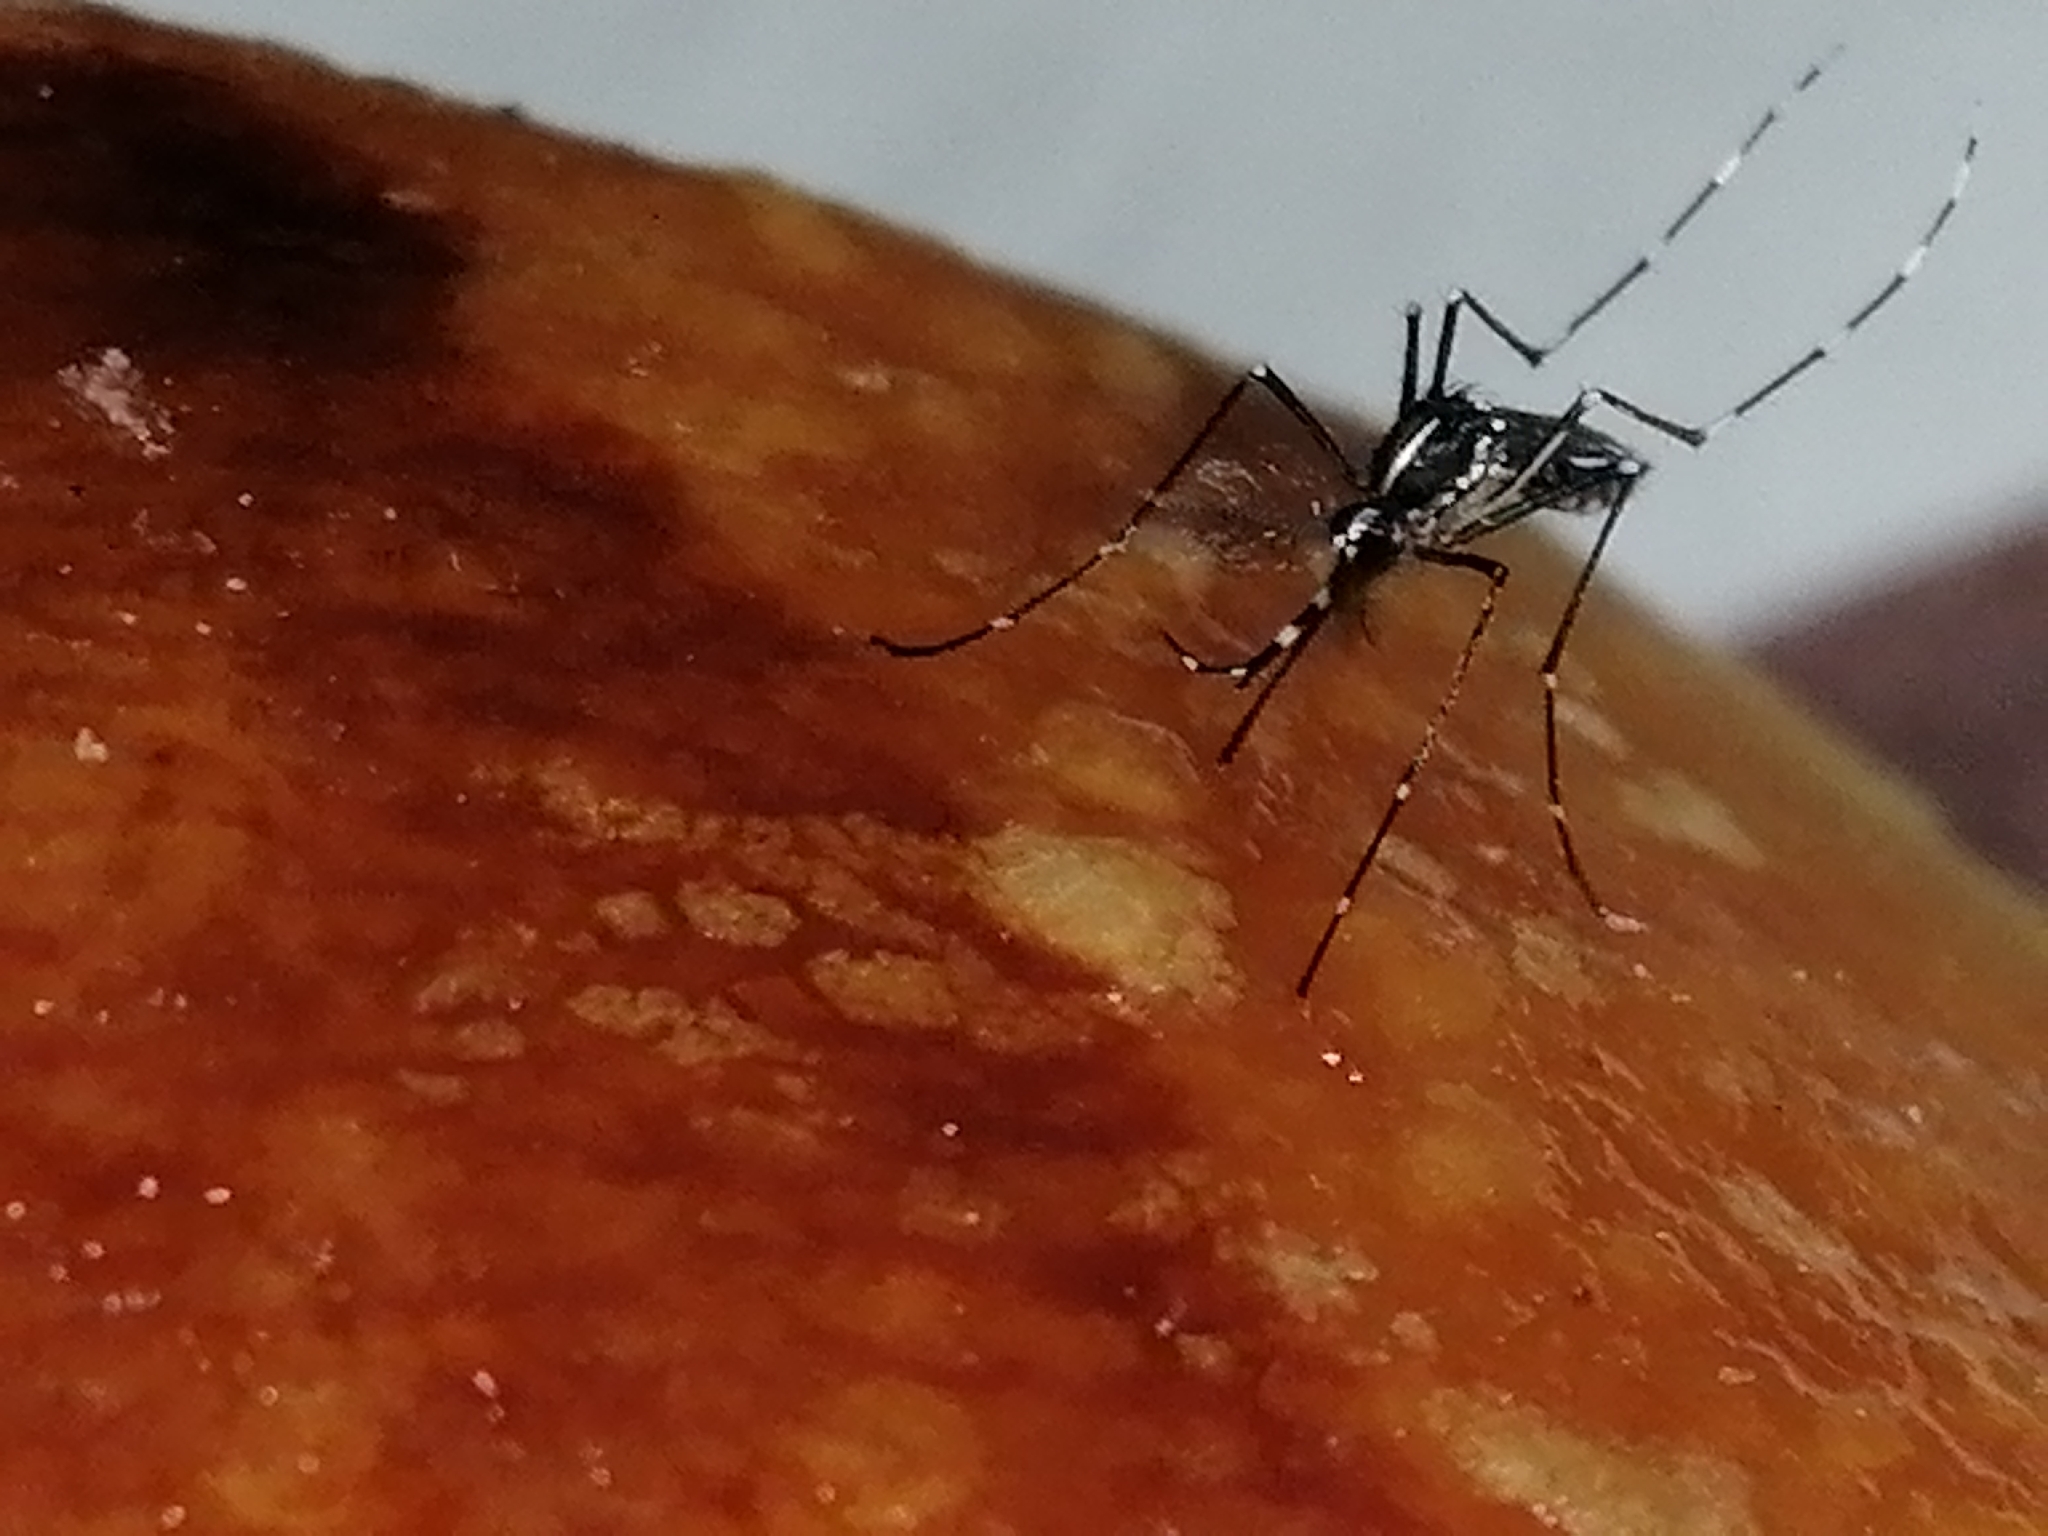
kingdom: Animalia
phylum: Arthropoda
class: Insecta
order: Diptera
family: Culicidae
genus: Aedes
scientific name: Aedes albopictus
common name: Tiger mosquito
